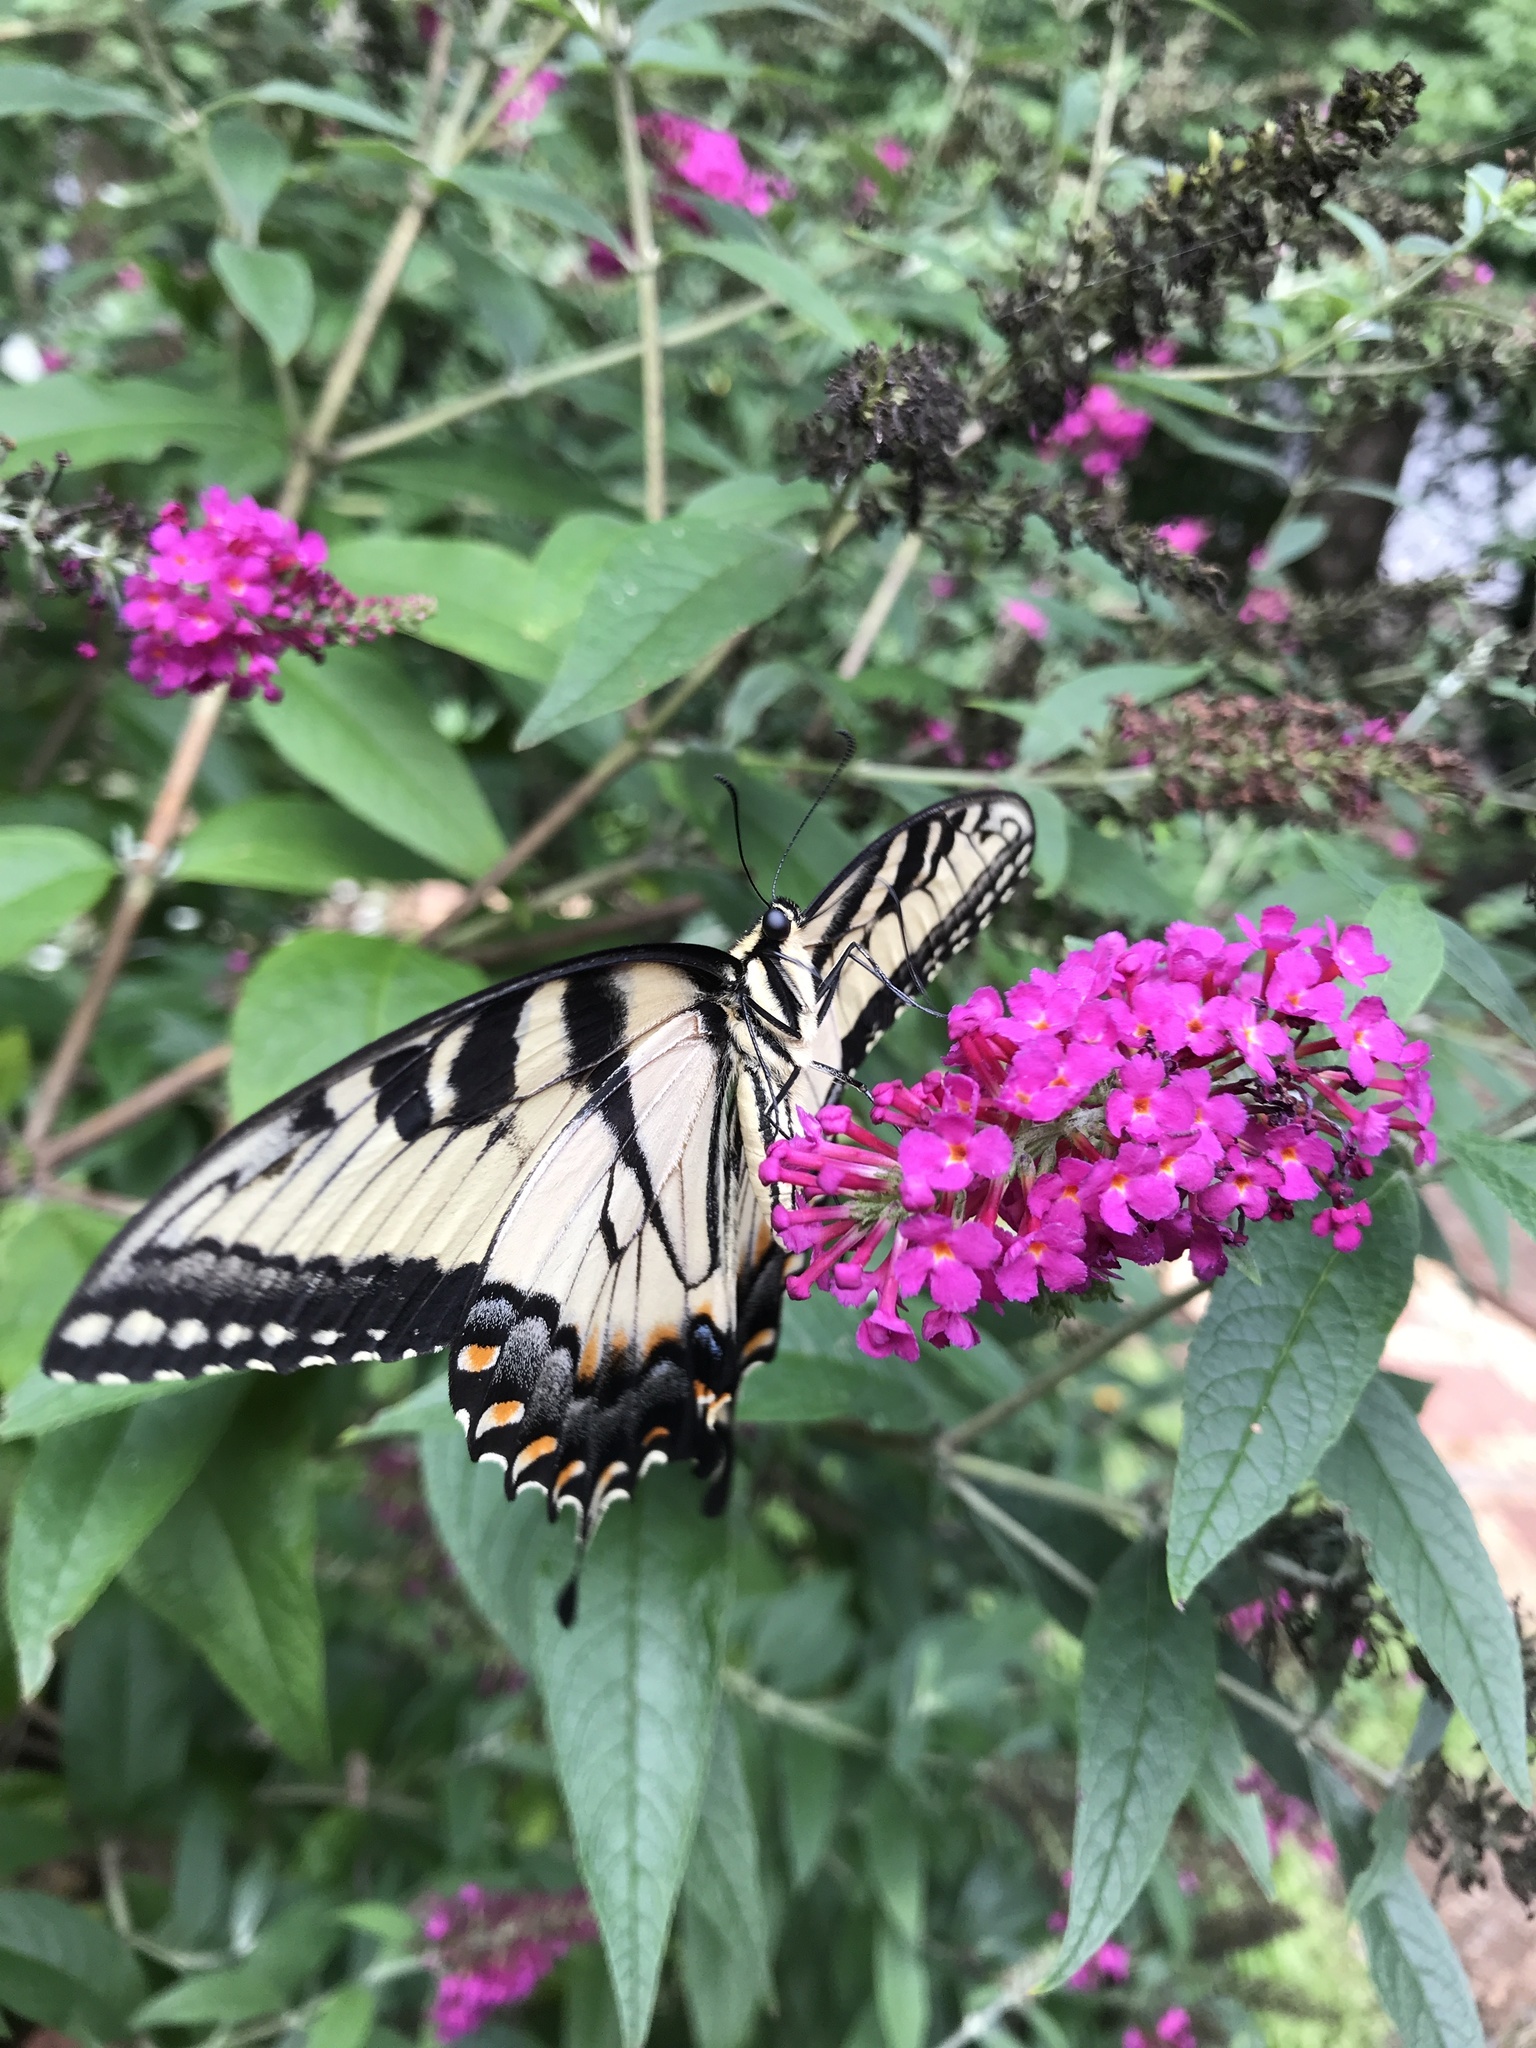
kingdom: Animalia
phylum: Arthropoda
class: Insecta
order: Lepidoptera
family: Papilionidae
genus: Papilio
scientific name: Papilio glaucus
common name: Tiger swallowtail
